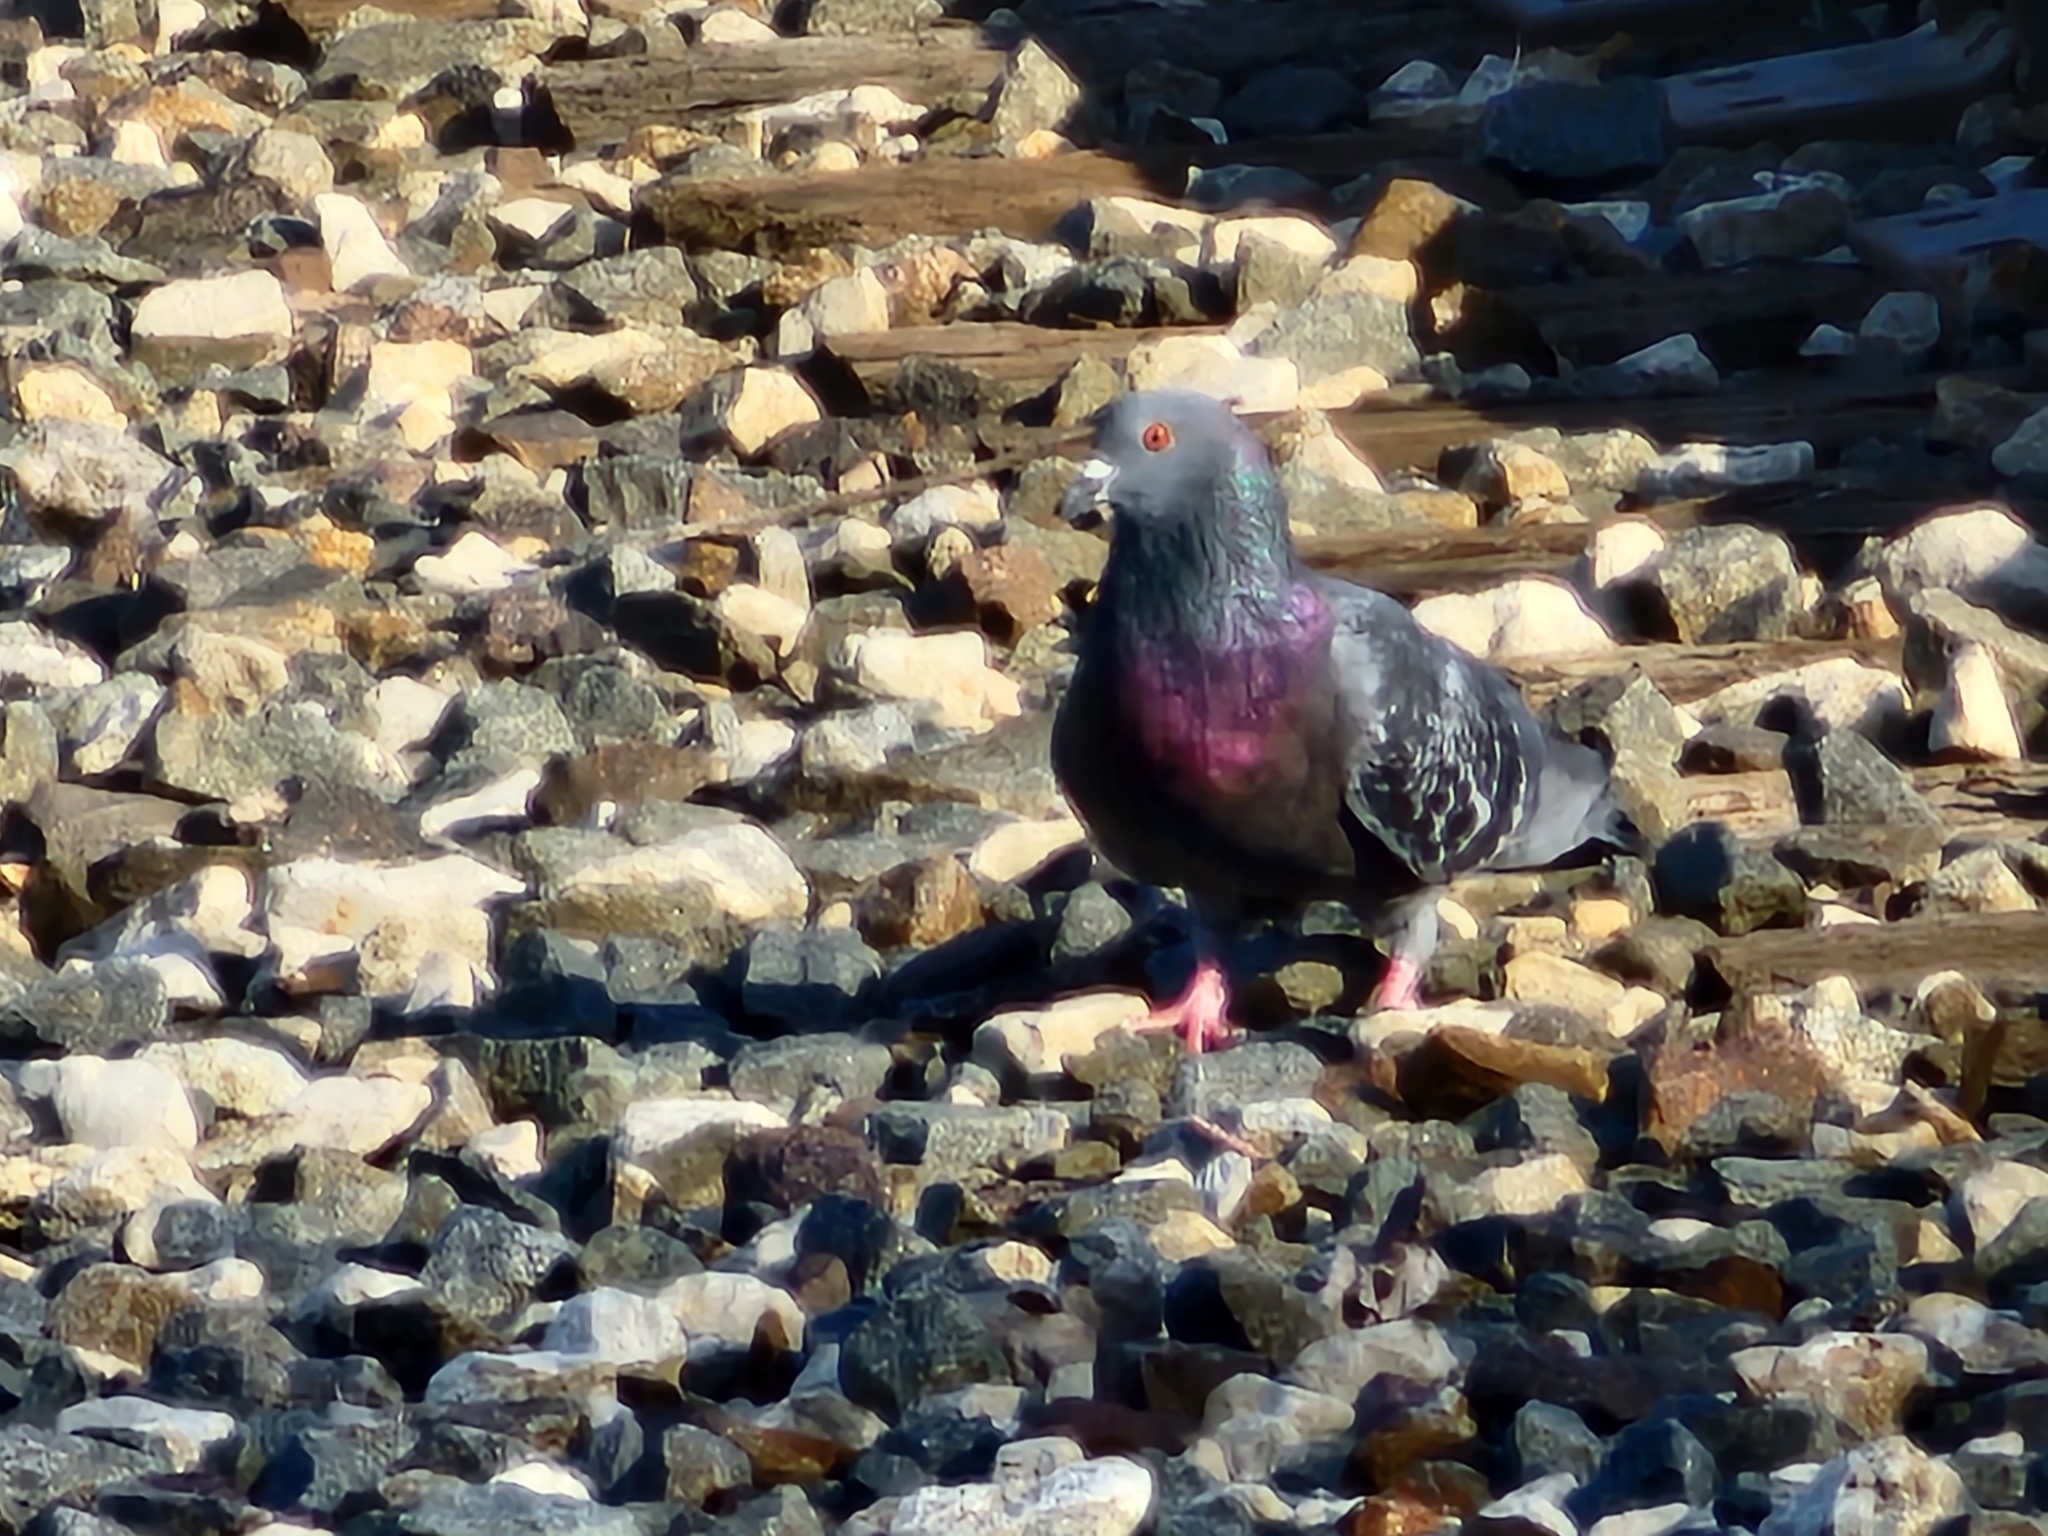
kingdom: Animalia
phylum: Chordata
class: Aves
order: Columbiformes
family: Columbidae
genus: Columba
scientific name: Columba livia
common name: Rock pigeon
